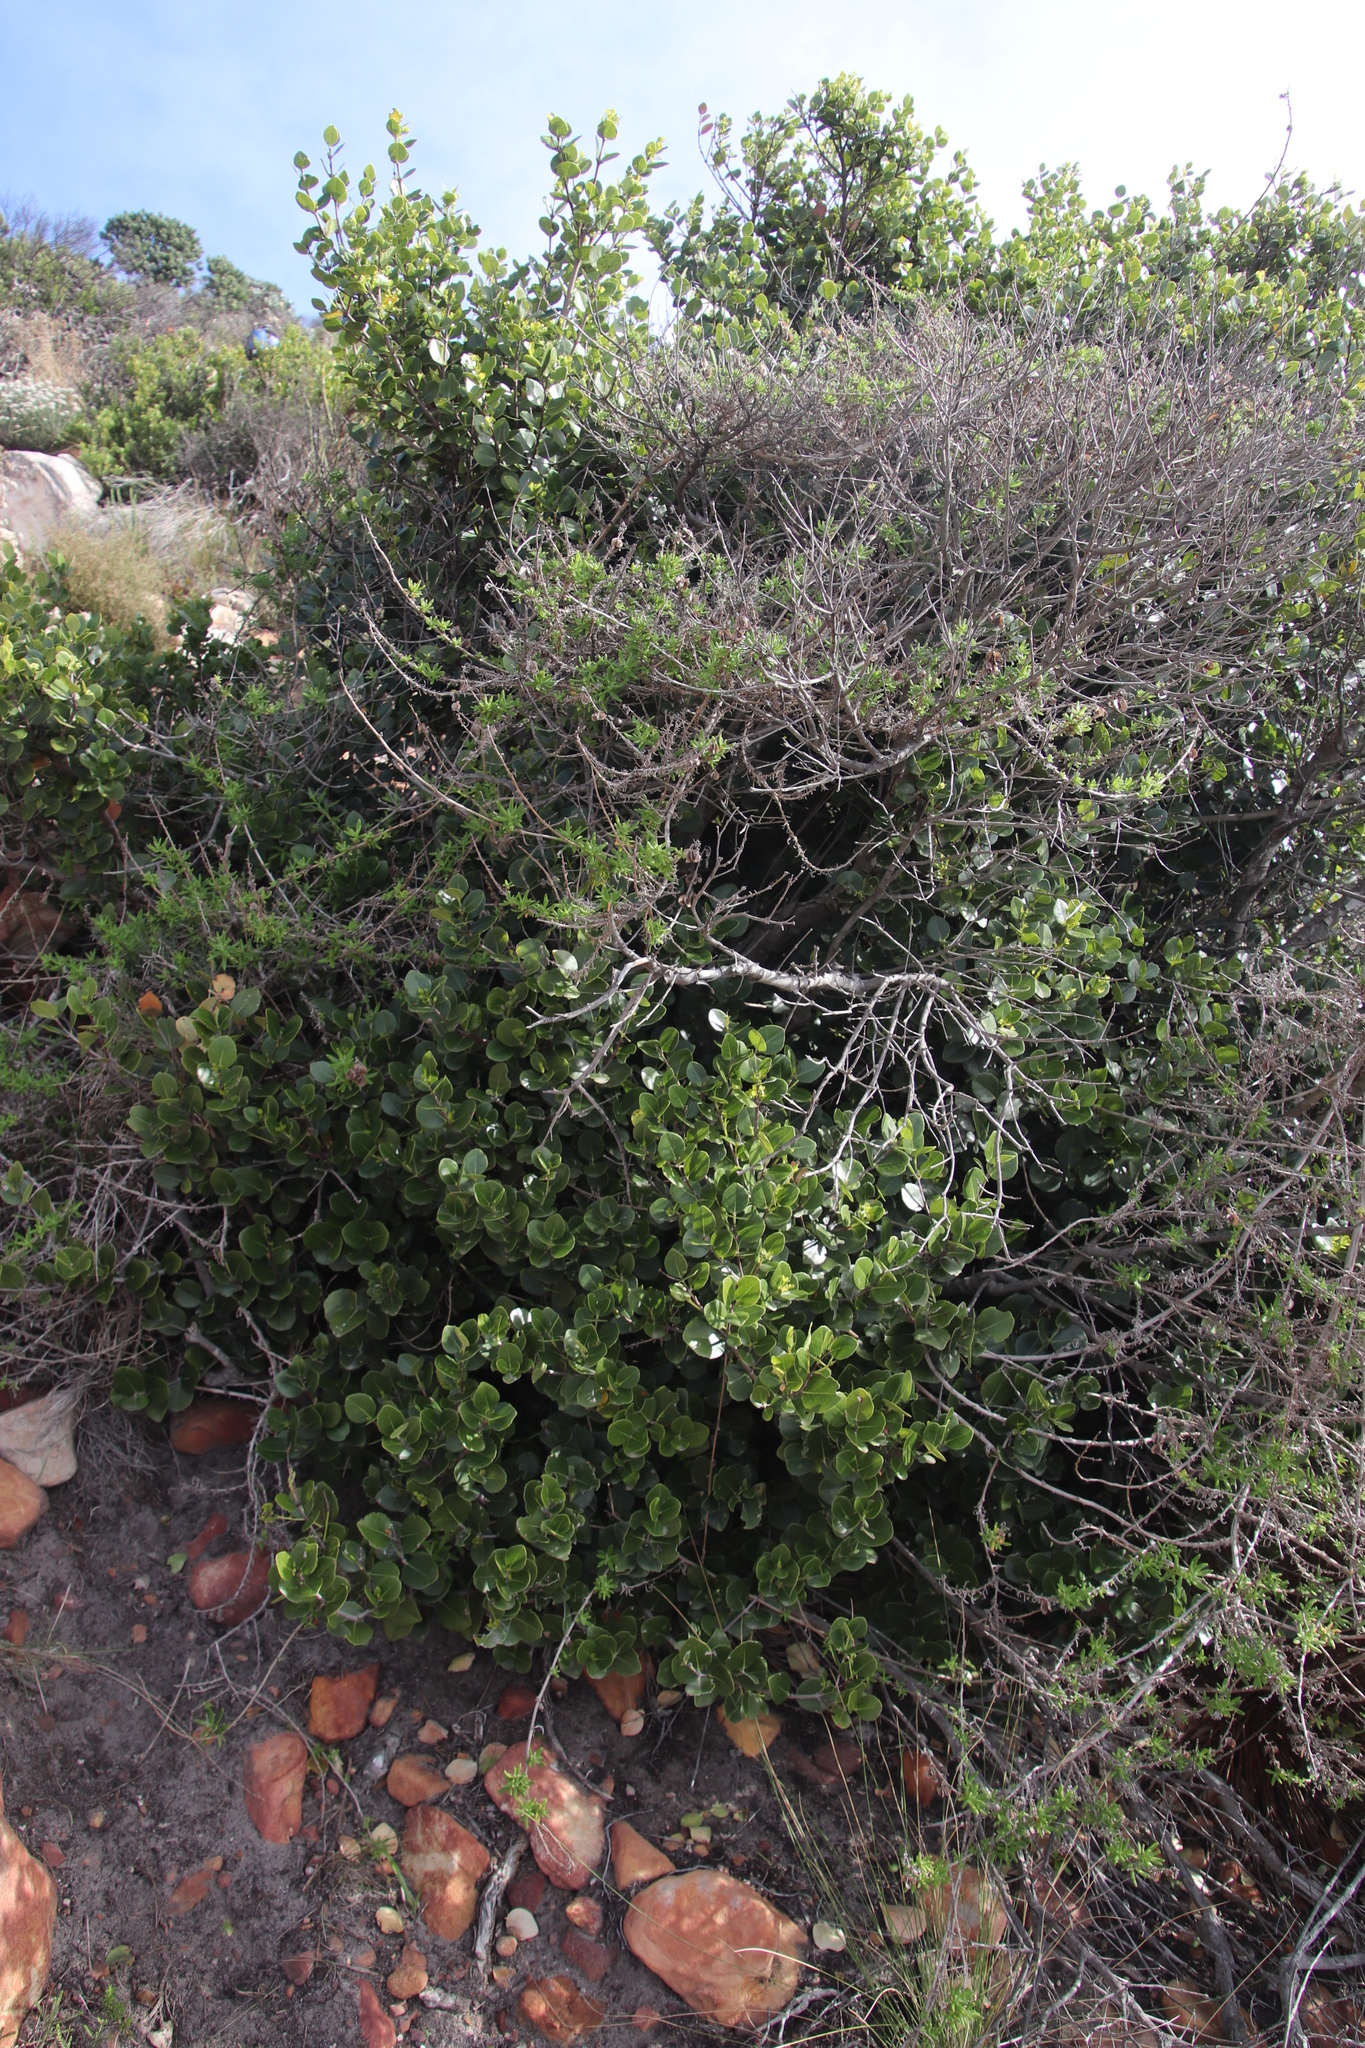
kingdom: Plantae
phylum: Tracheophyta
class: Magnoliopsida
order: Celastrales
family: Celastraceae
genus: Cassine
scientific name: Cassine peragua
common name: Cape saffron
